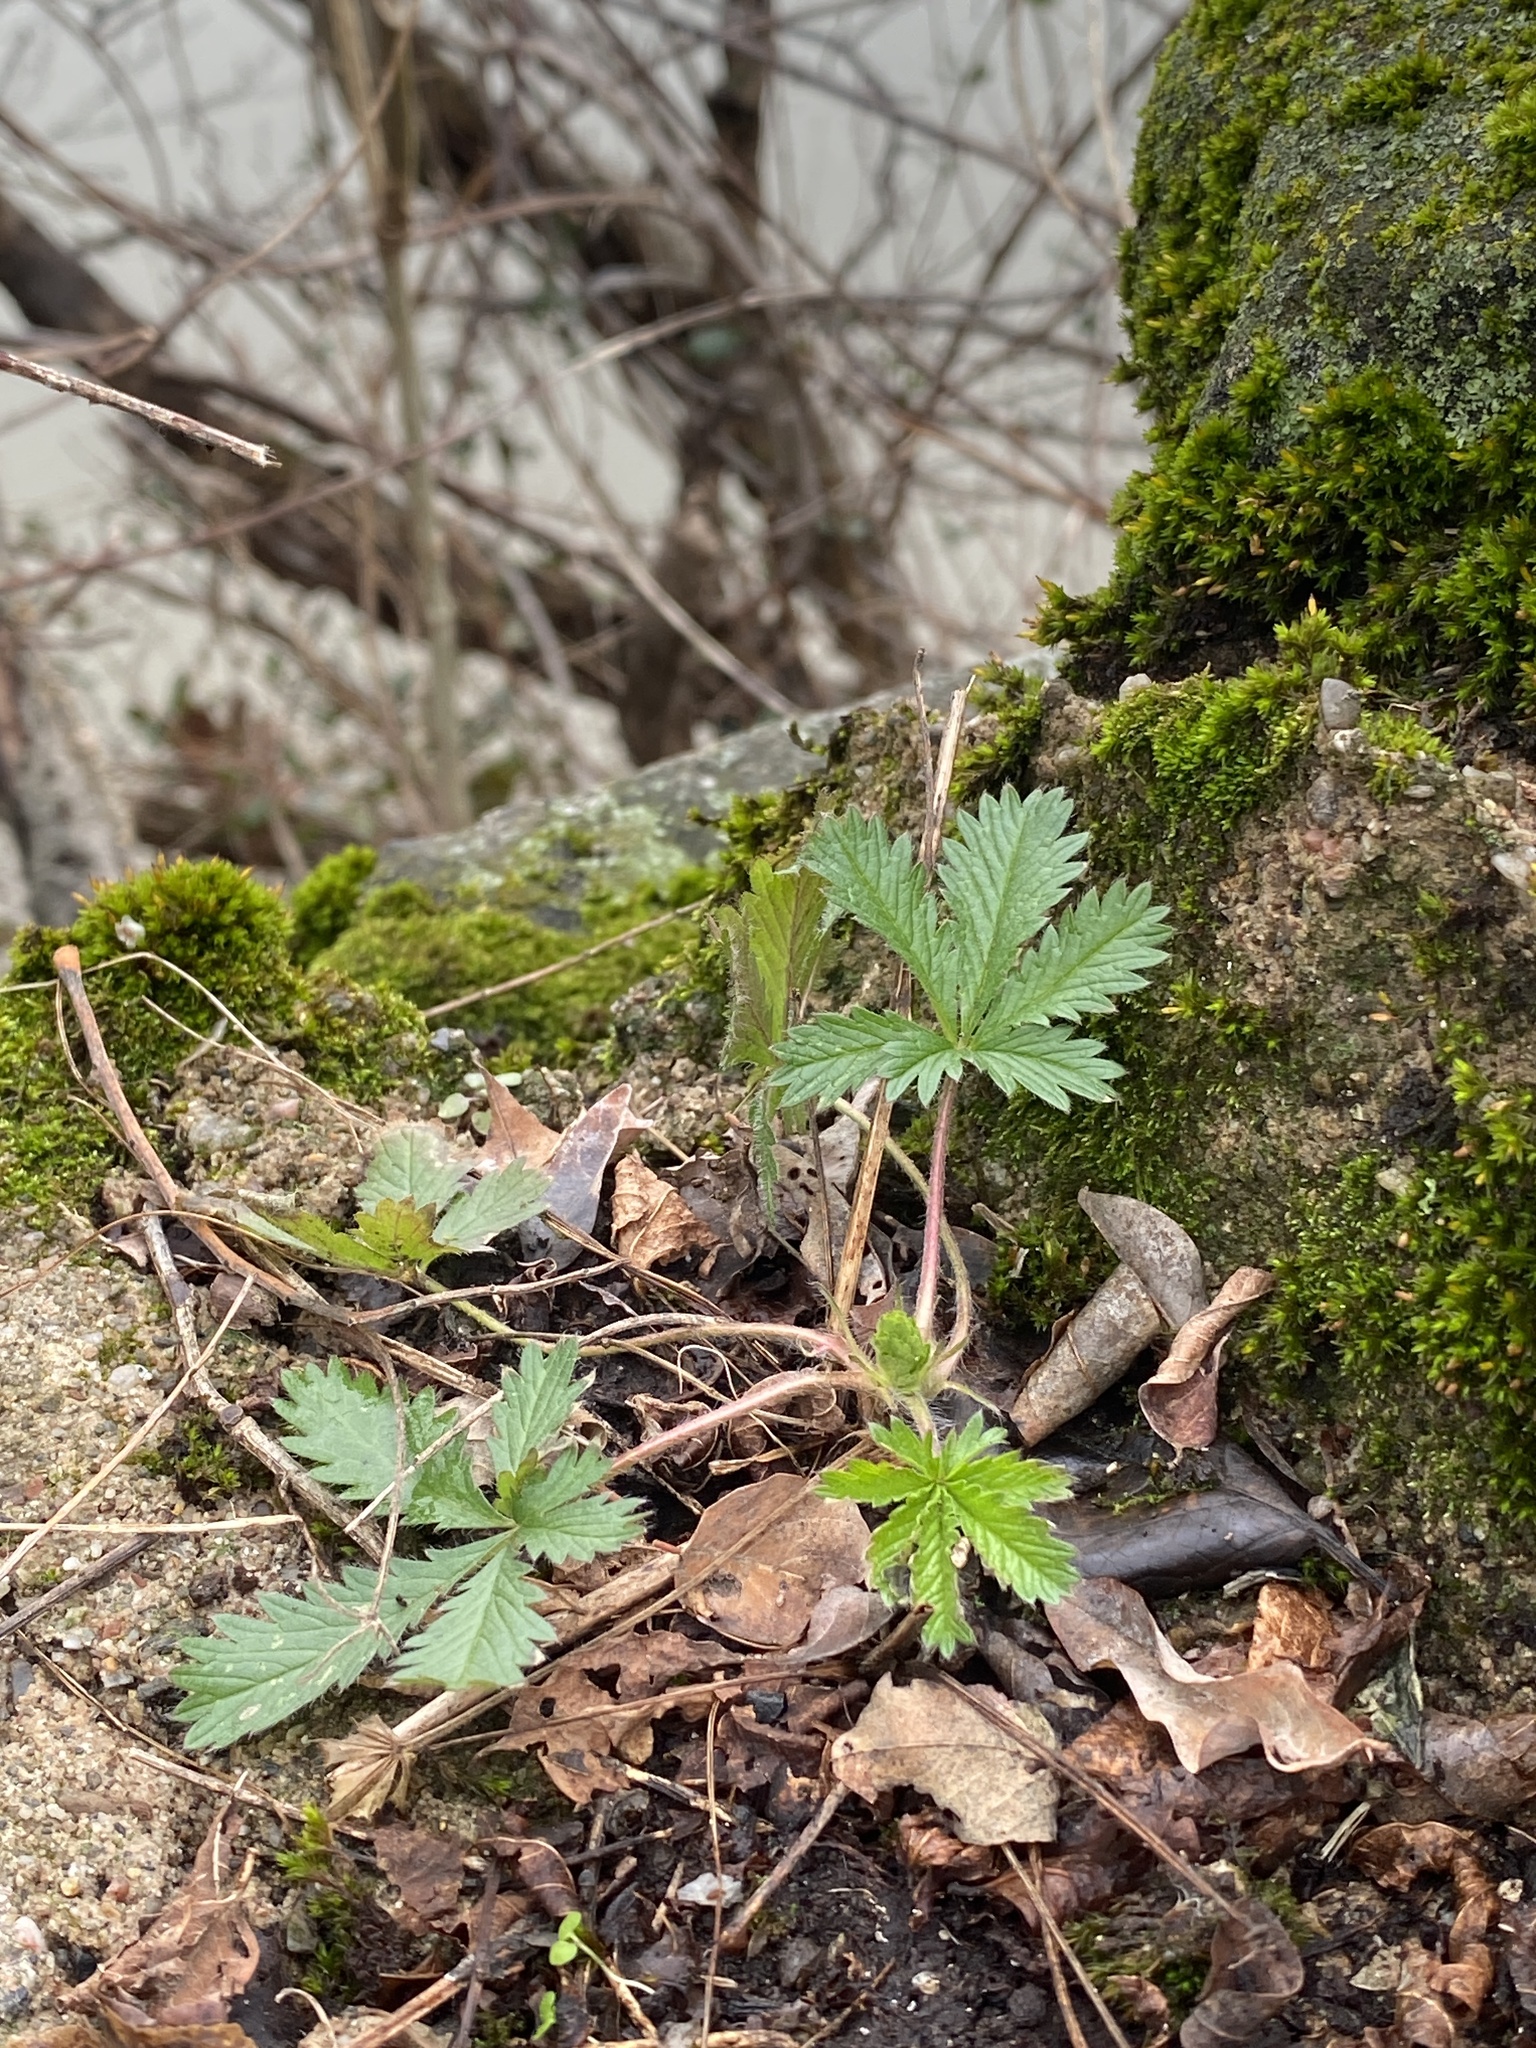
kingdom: Plantae
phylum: Tracheophyta
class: Magnoliopsida
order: Rosales
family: Rosaceae
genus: Potentilla
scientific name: Potentilla recta
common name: Sulphur cinquefoil
